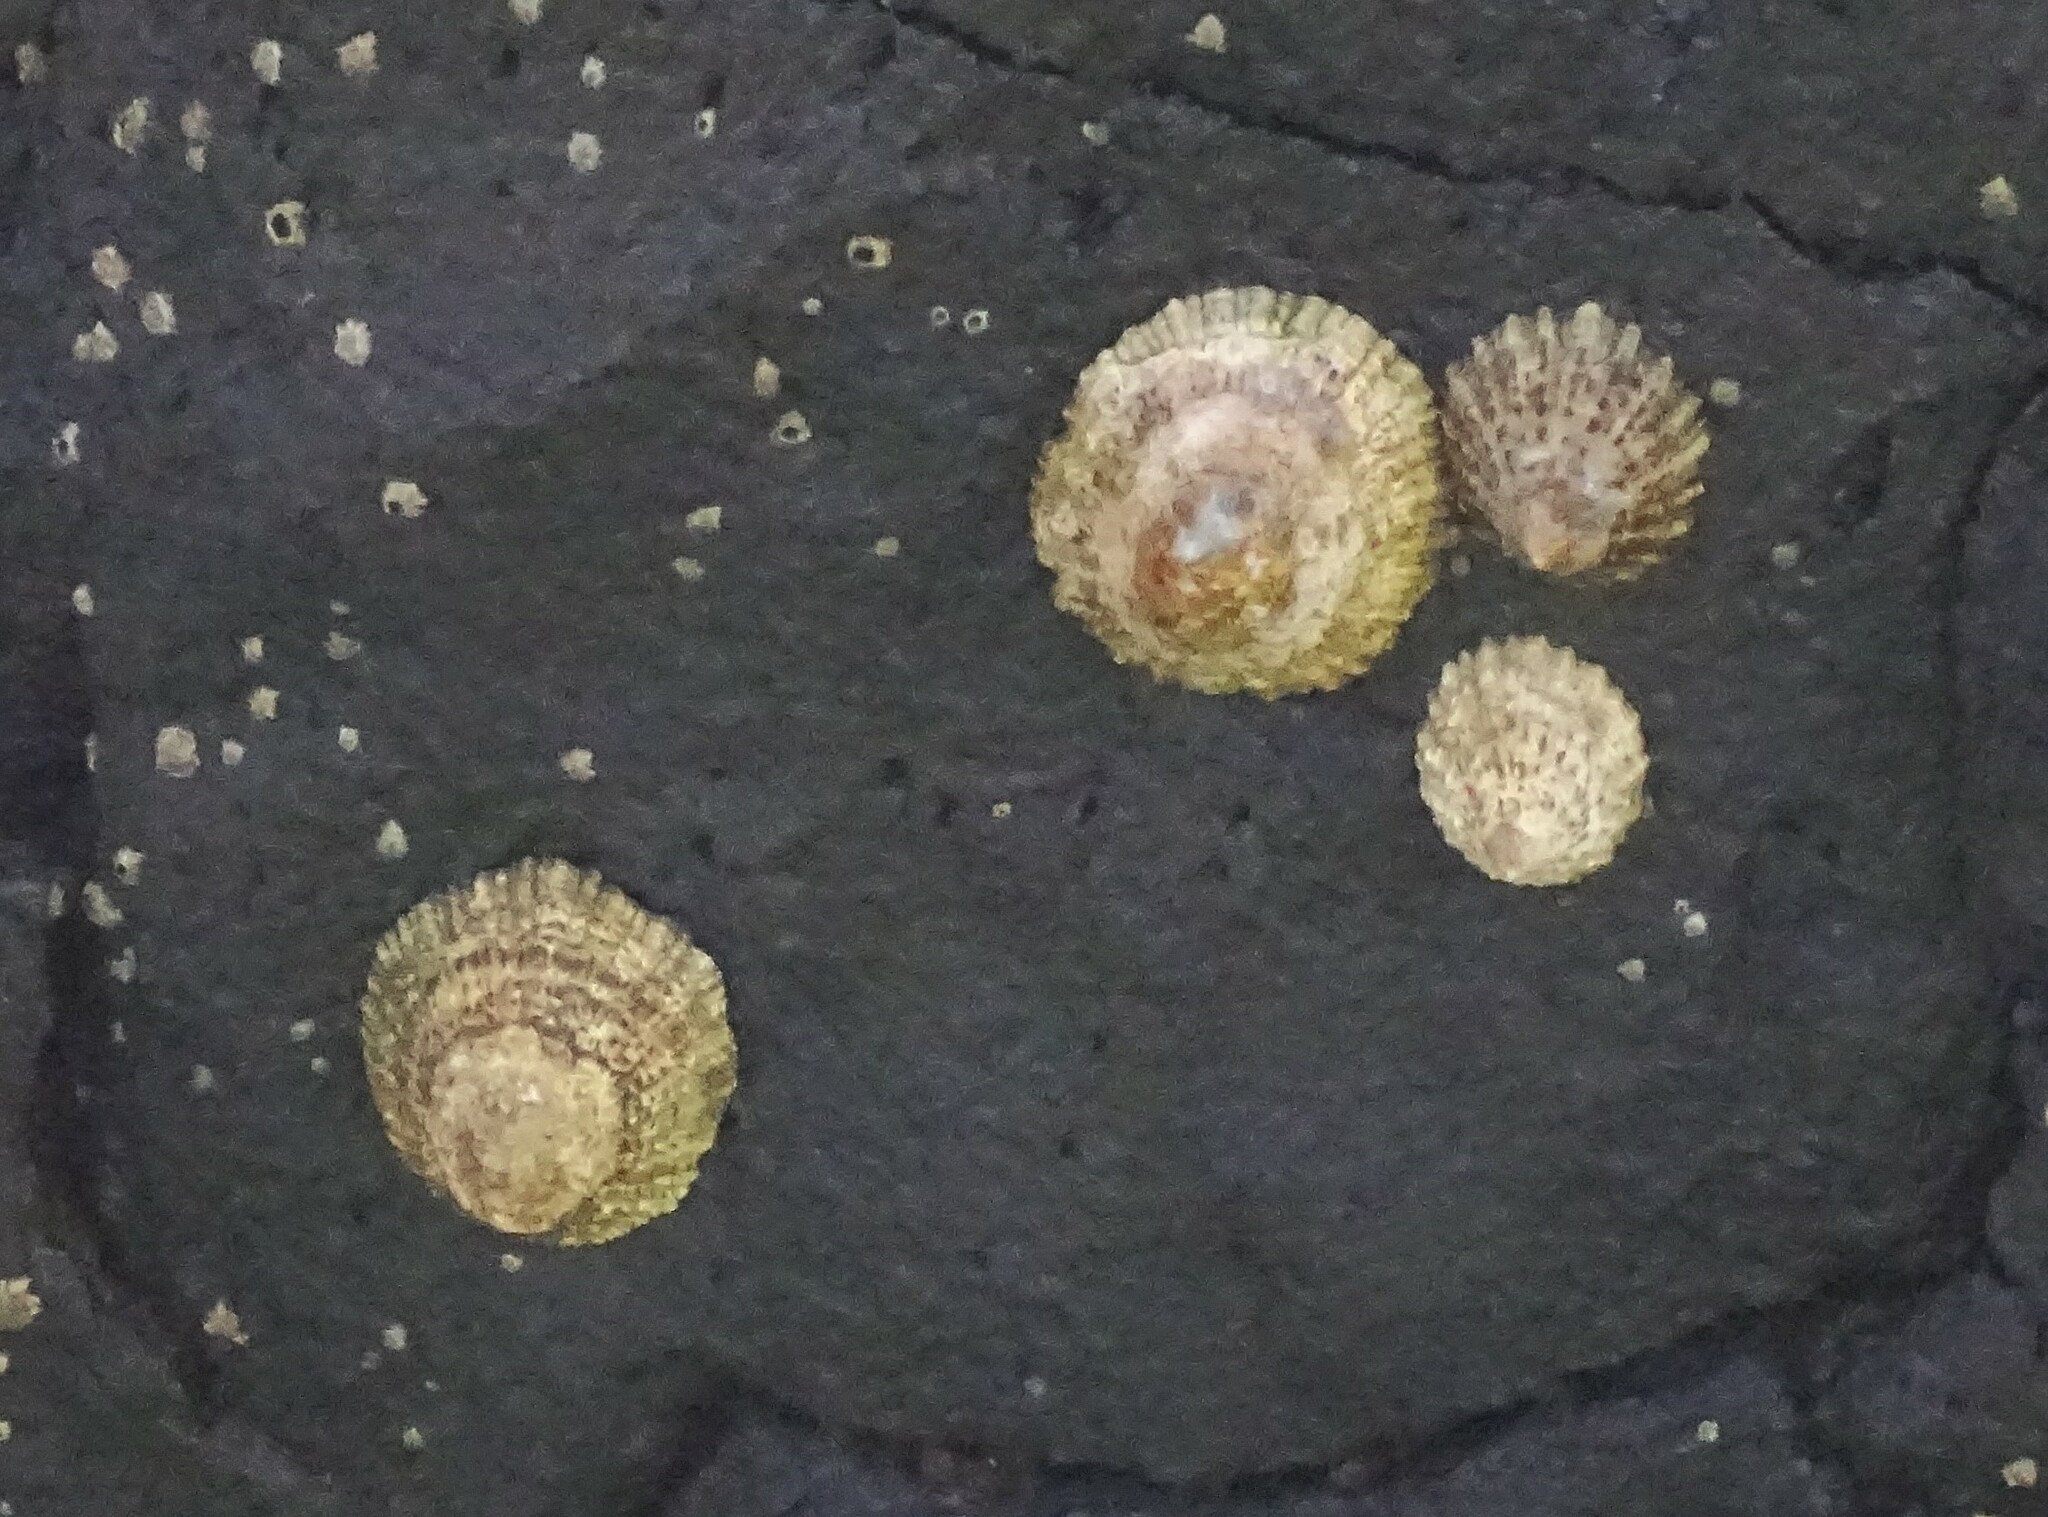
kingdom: Animalia
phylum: Mollusca
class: Gastropoda
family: Patellidae
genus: Patella
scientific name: Patella piperata
